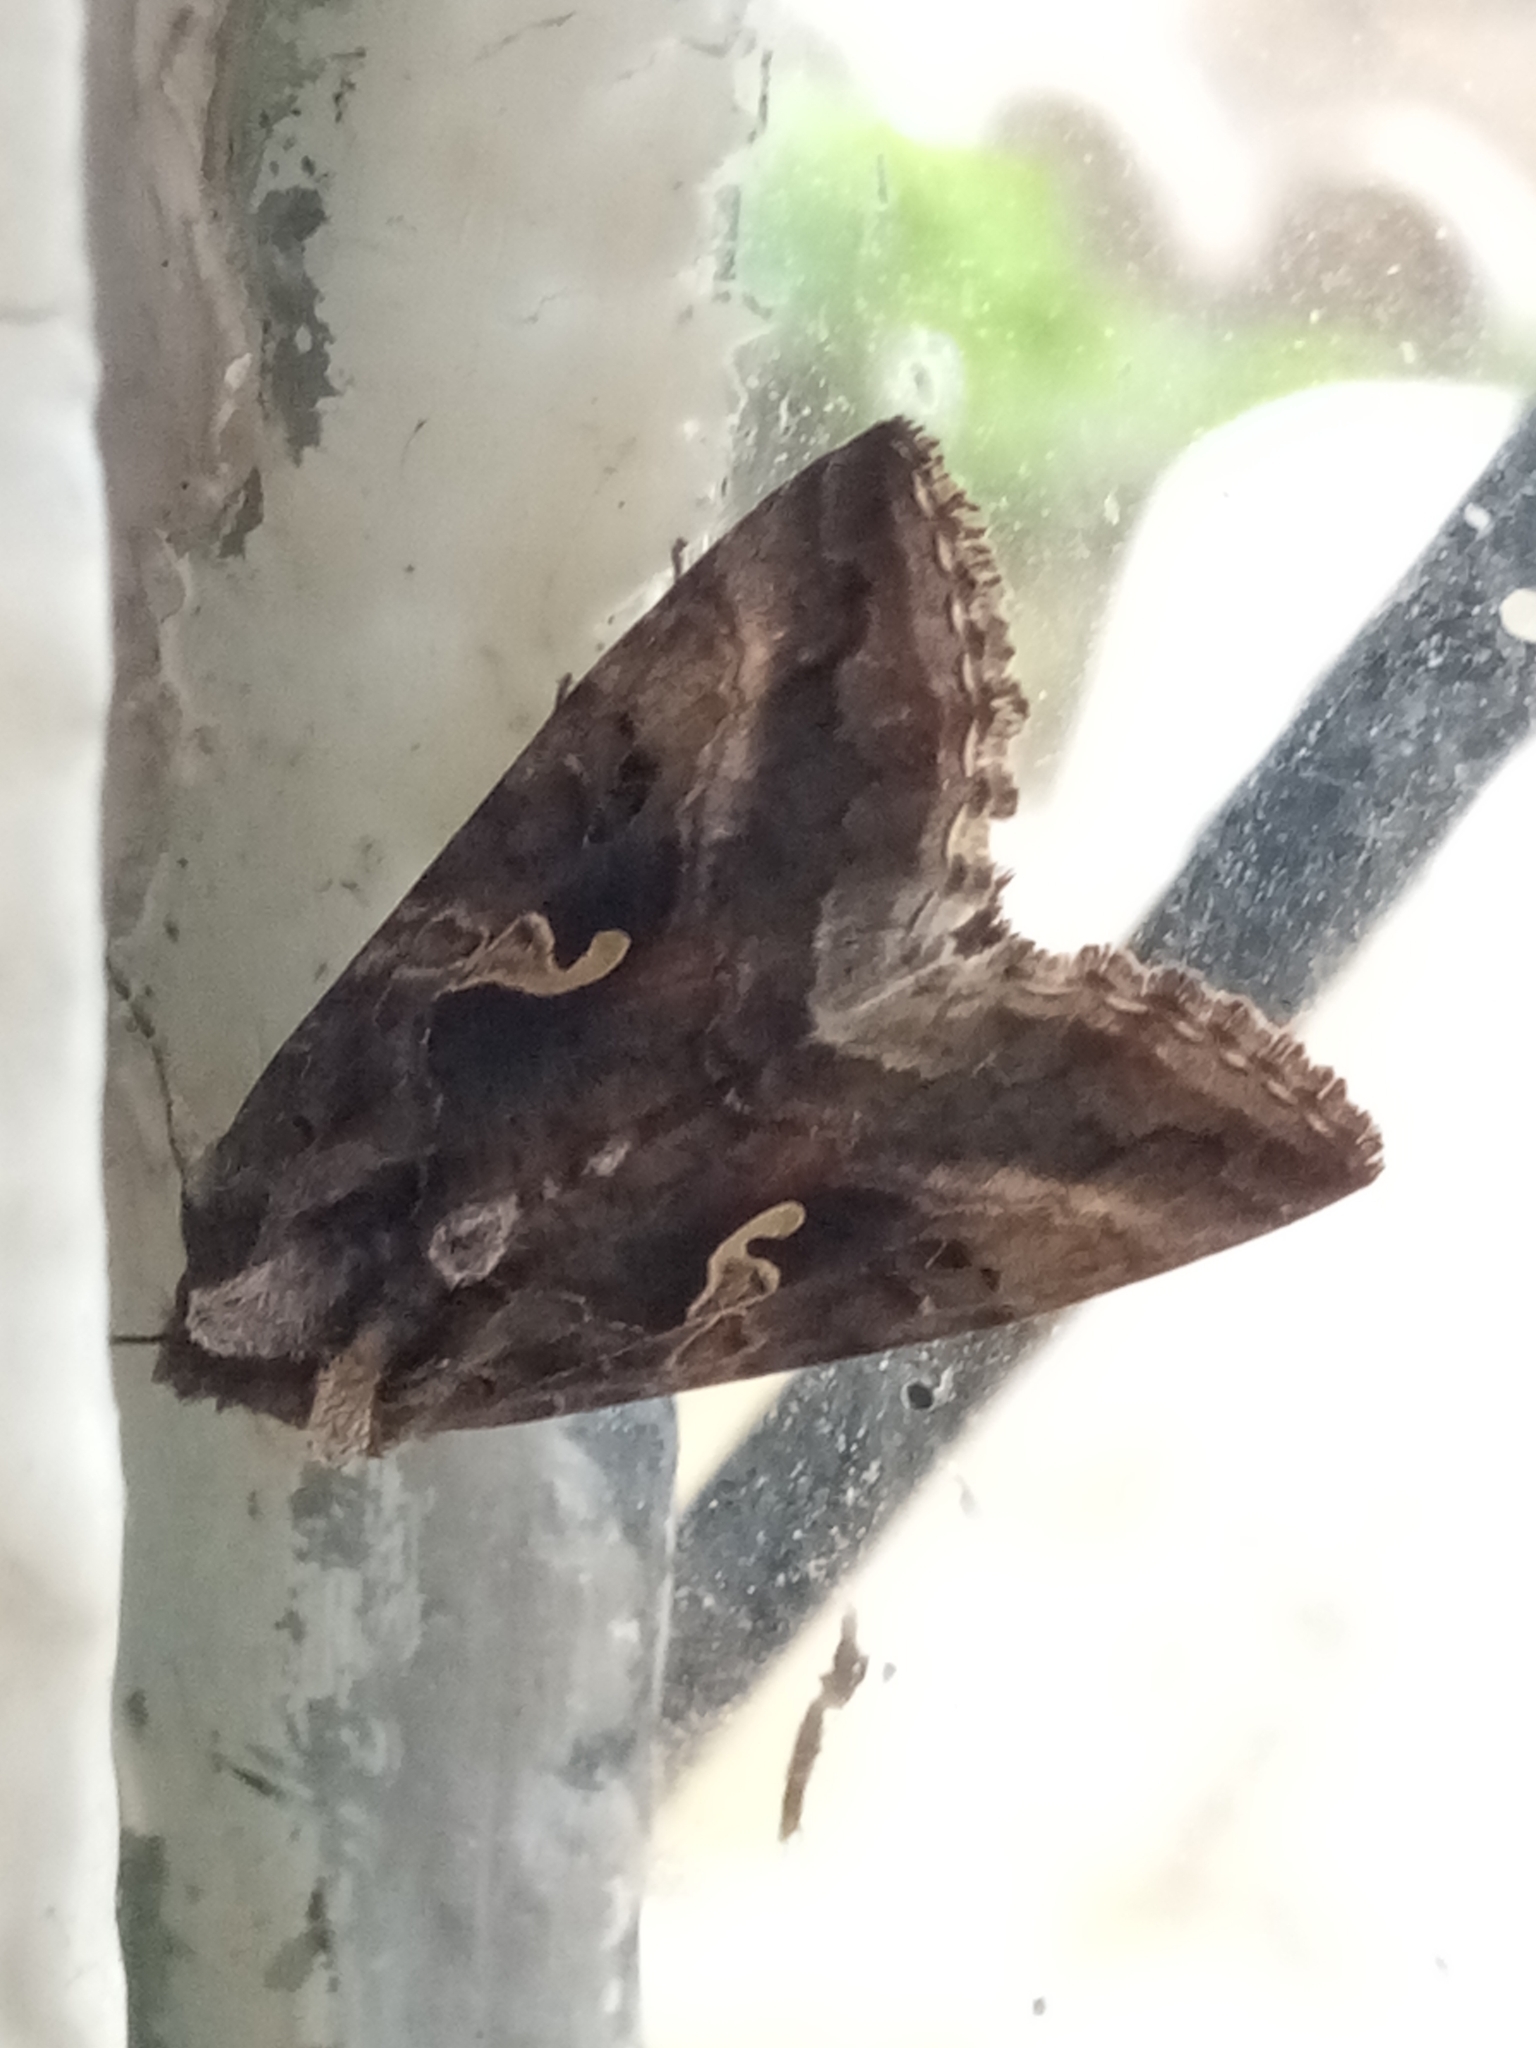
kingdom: Animalia
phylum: Arthropoda
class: Insecta
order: Lepidoptera
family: Noctuidae
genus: Autographa
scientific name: Autographa gamma
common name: Silver y
